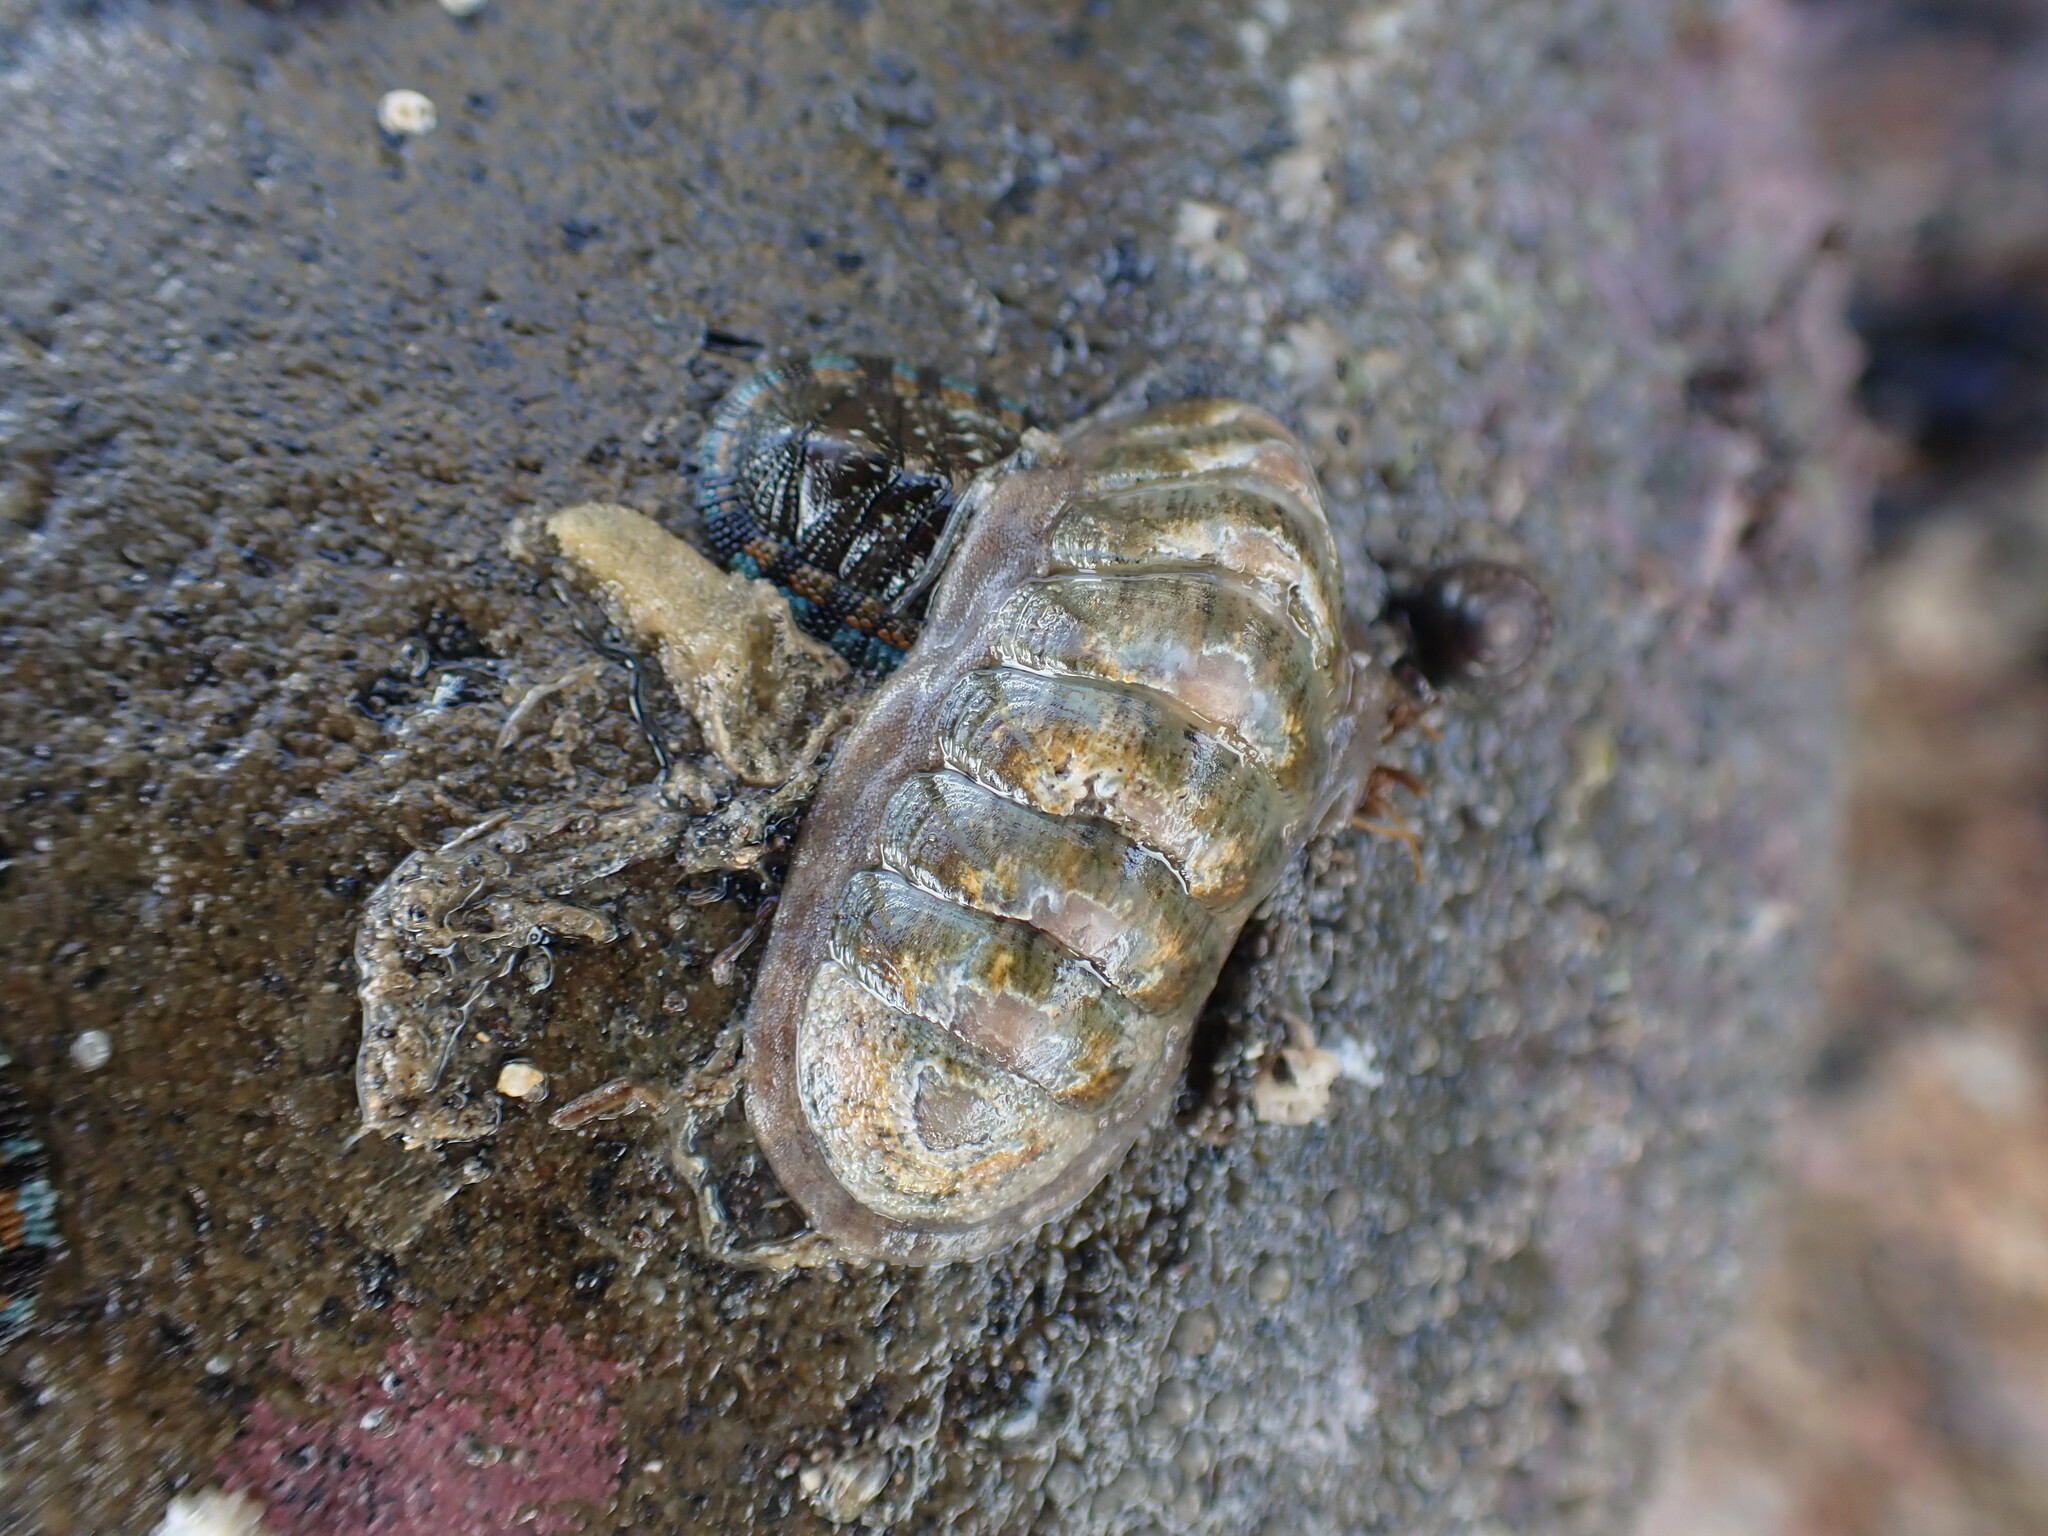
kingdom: Animalia
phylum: Mollusca
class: Polyplacophora
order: Chitonida
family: Ischnochitonidae
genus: Ischnochiton
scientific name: Ischnochiton maorianus
